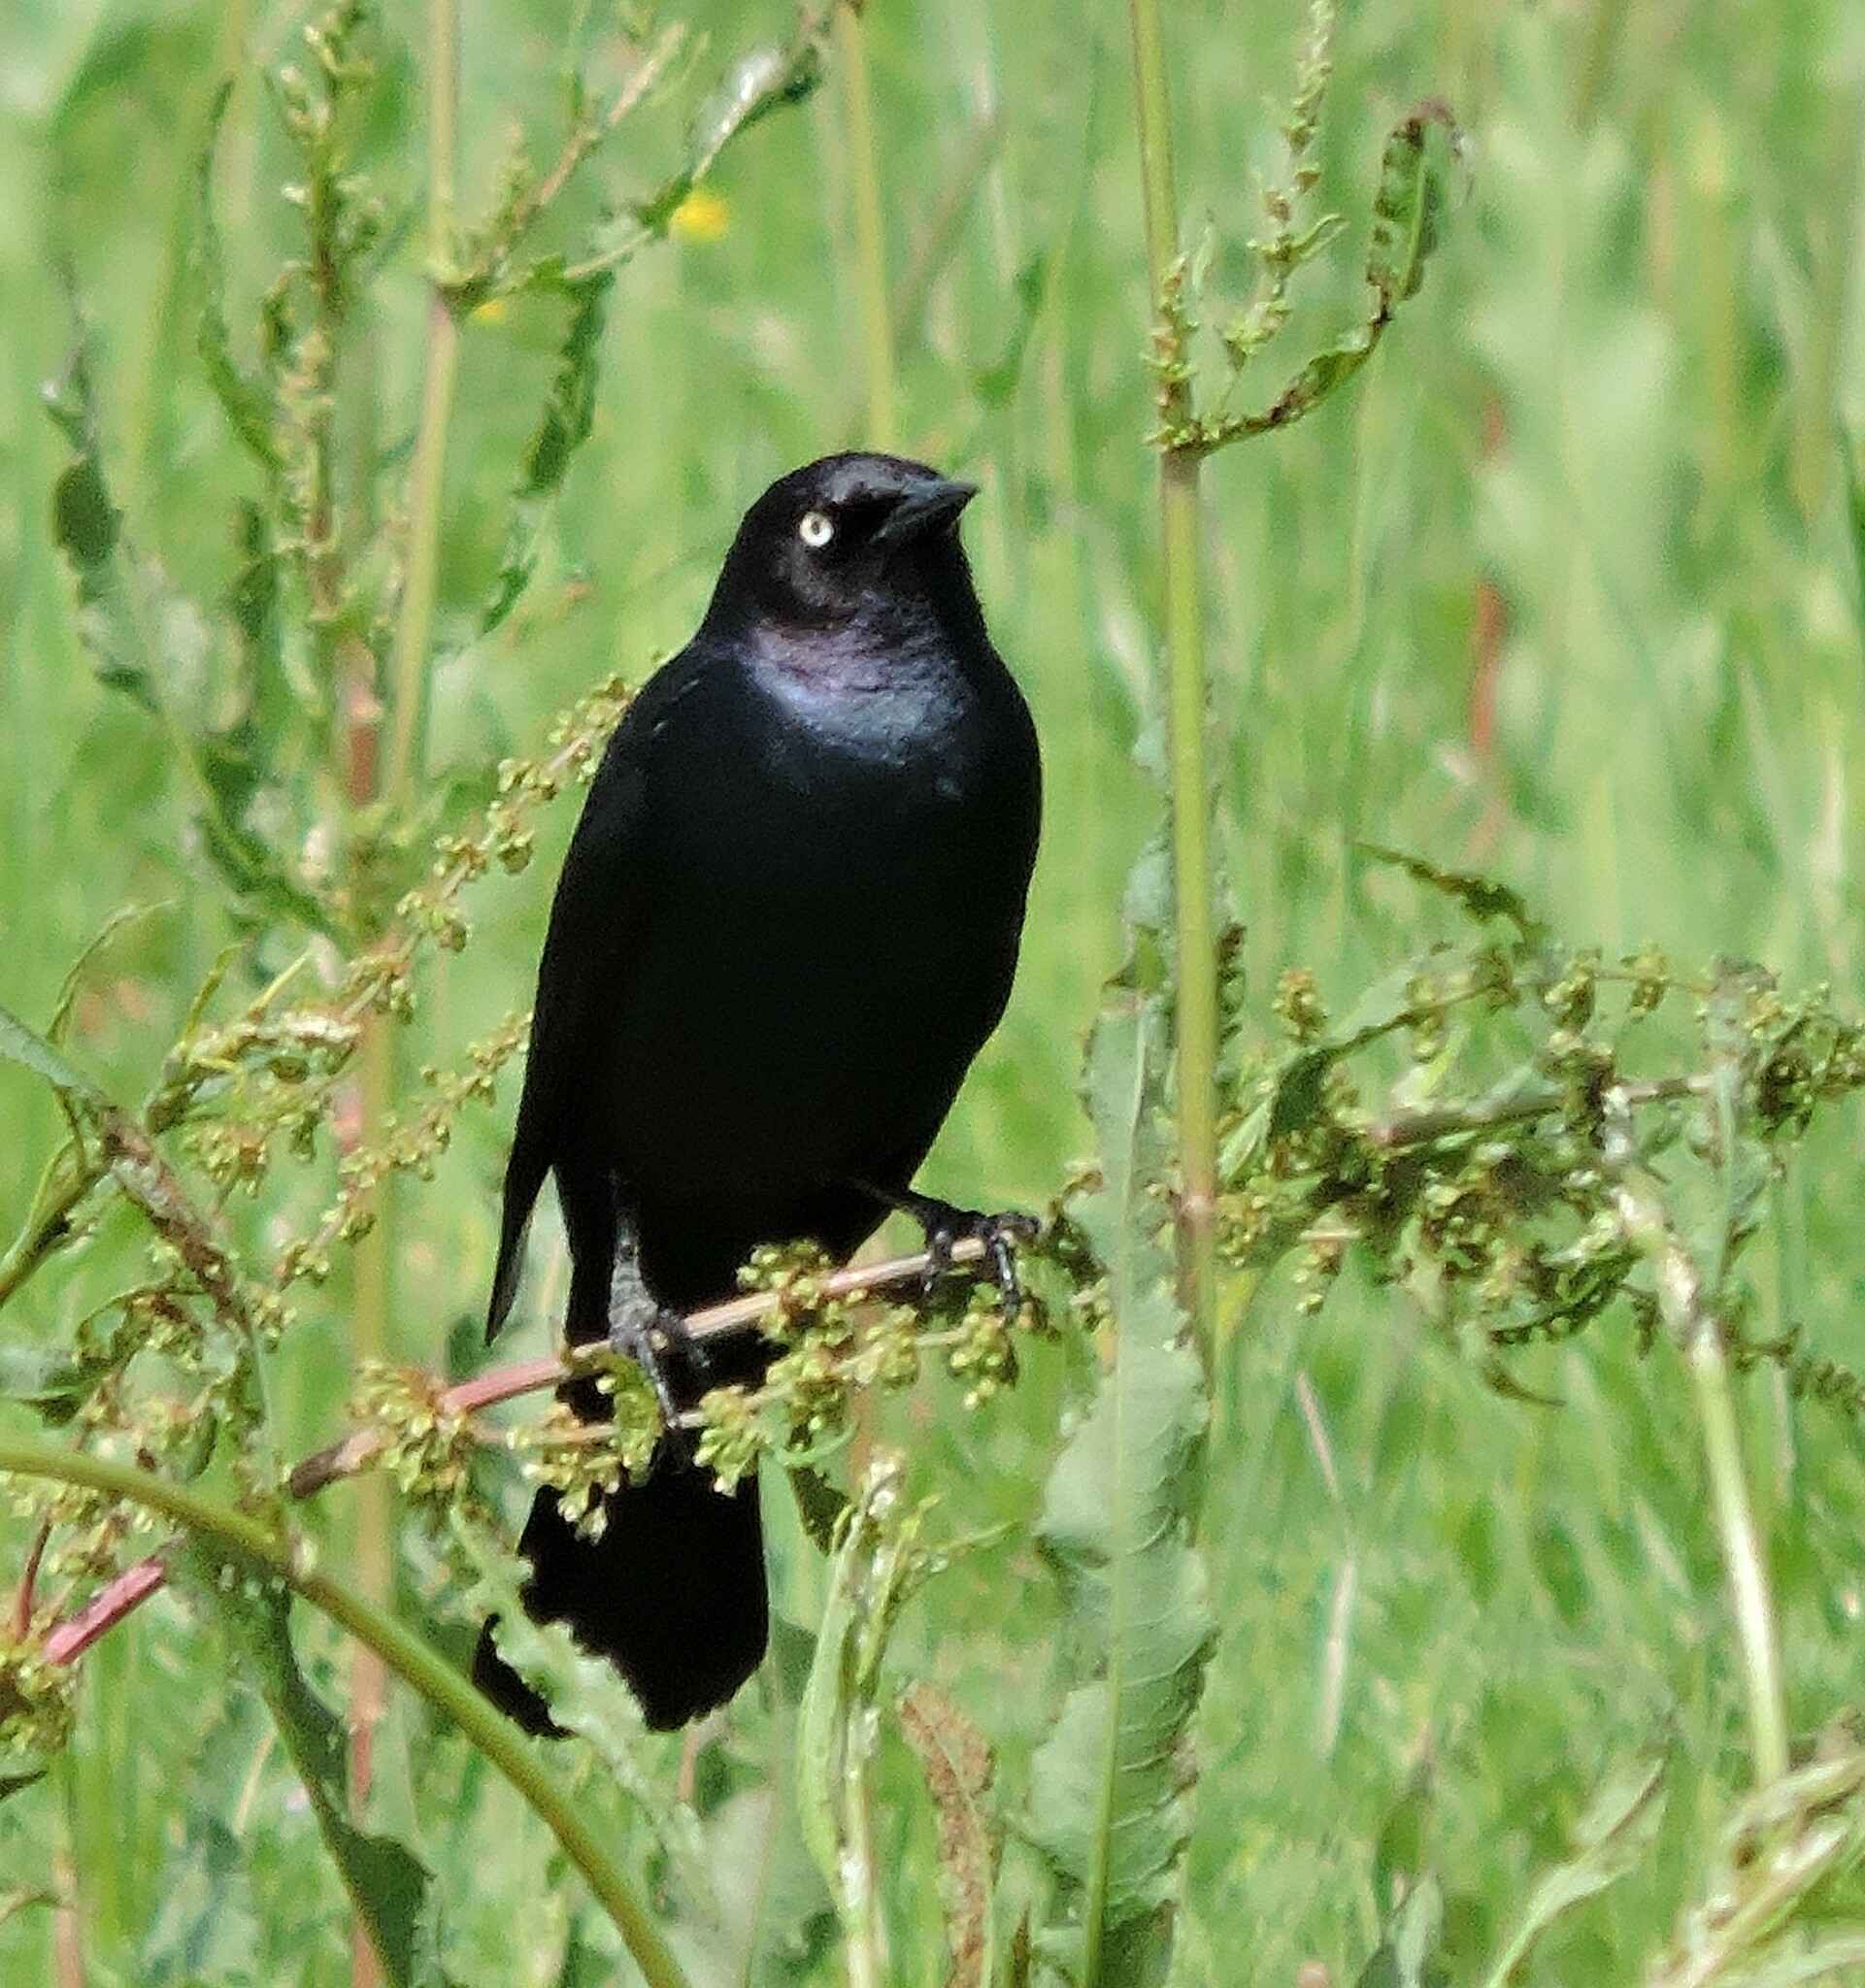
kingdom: Animalia
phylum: Chordata
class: Aves
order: Passeriformes
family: Icteridae
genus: Euphagus
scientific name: Euphagus cyanocephalus
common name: Brewer's blackbird
